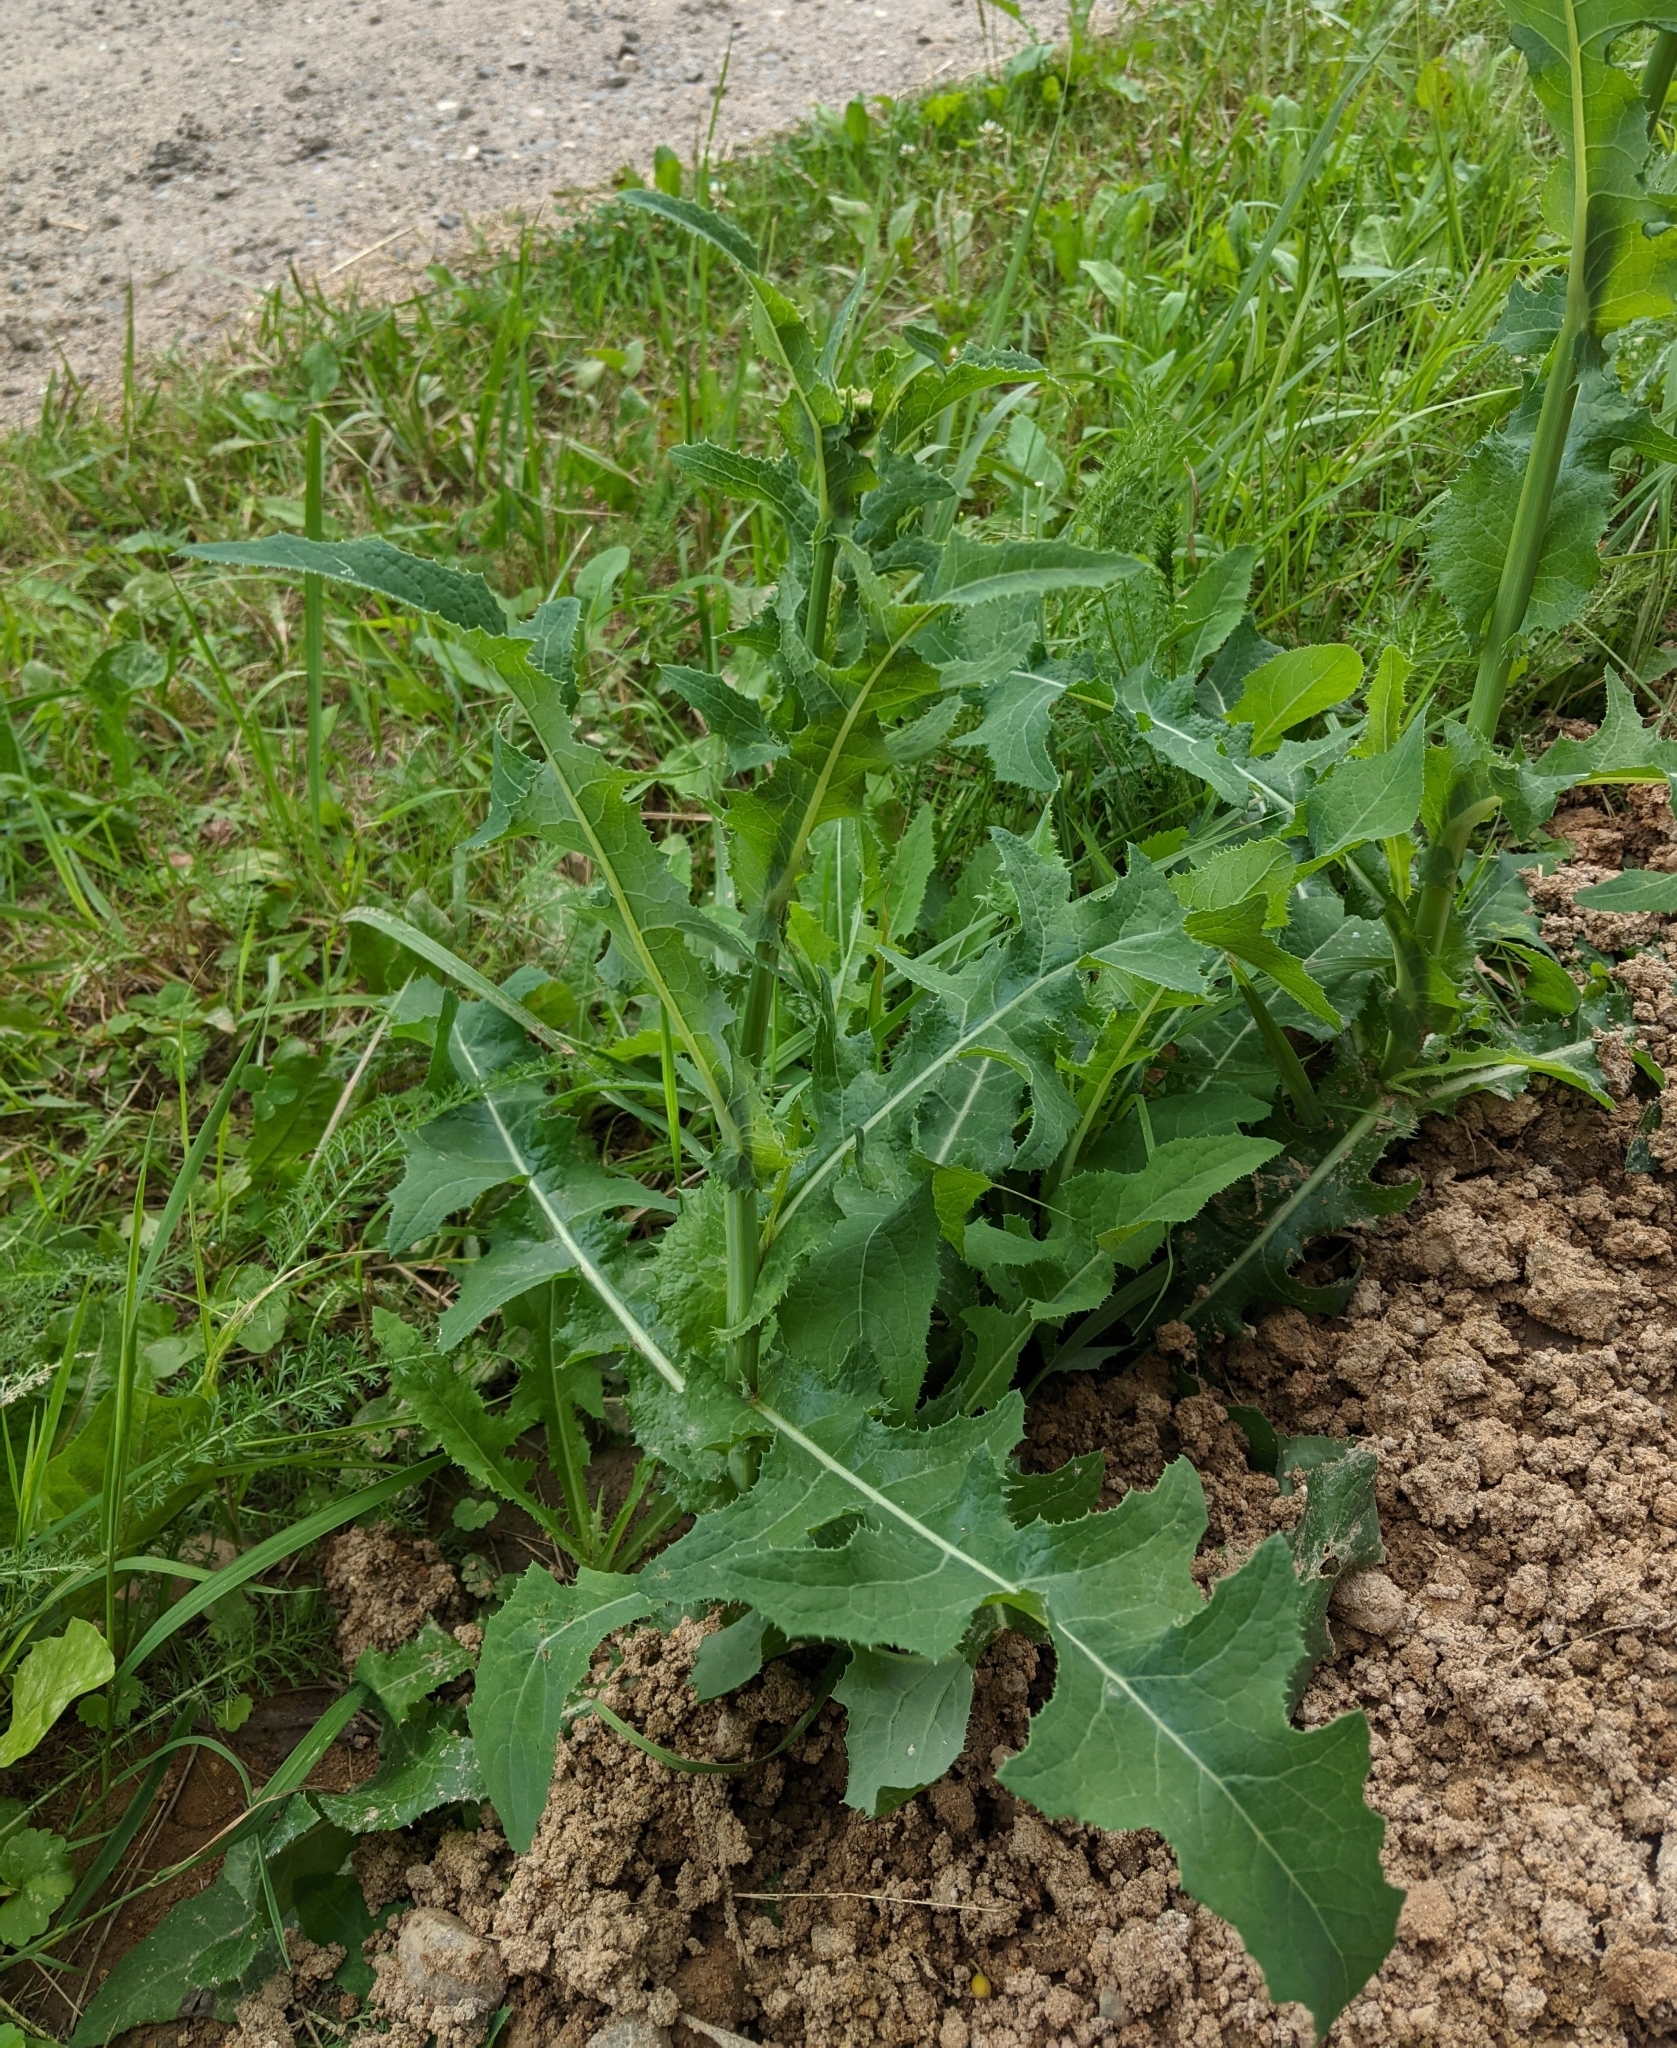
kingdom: Plantae
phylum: Tracheophyta
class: Magnoliopsida
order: Asterales
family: Asteraceae
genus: Sonchus
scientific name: Sonchus arvensis
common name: Perennial sow-thistle
